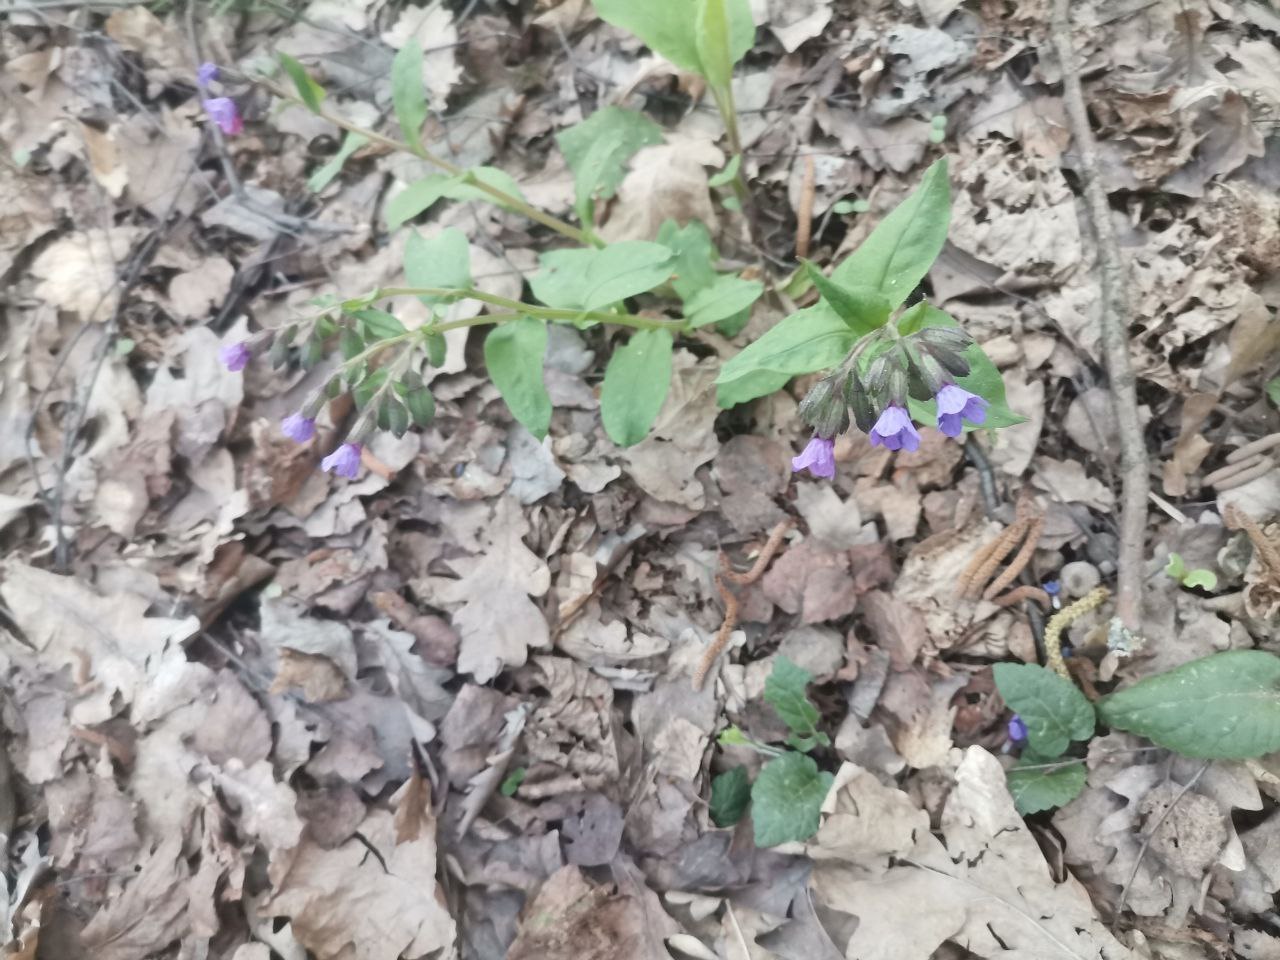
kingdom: Plantae
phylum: Tracheophyta
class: Magnoliopsida
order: Boraginales
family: Boraginaceae
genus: Pulmonaria
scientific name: Pulmonaria obscura
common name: Suffolk lungwort
